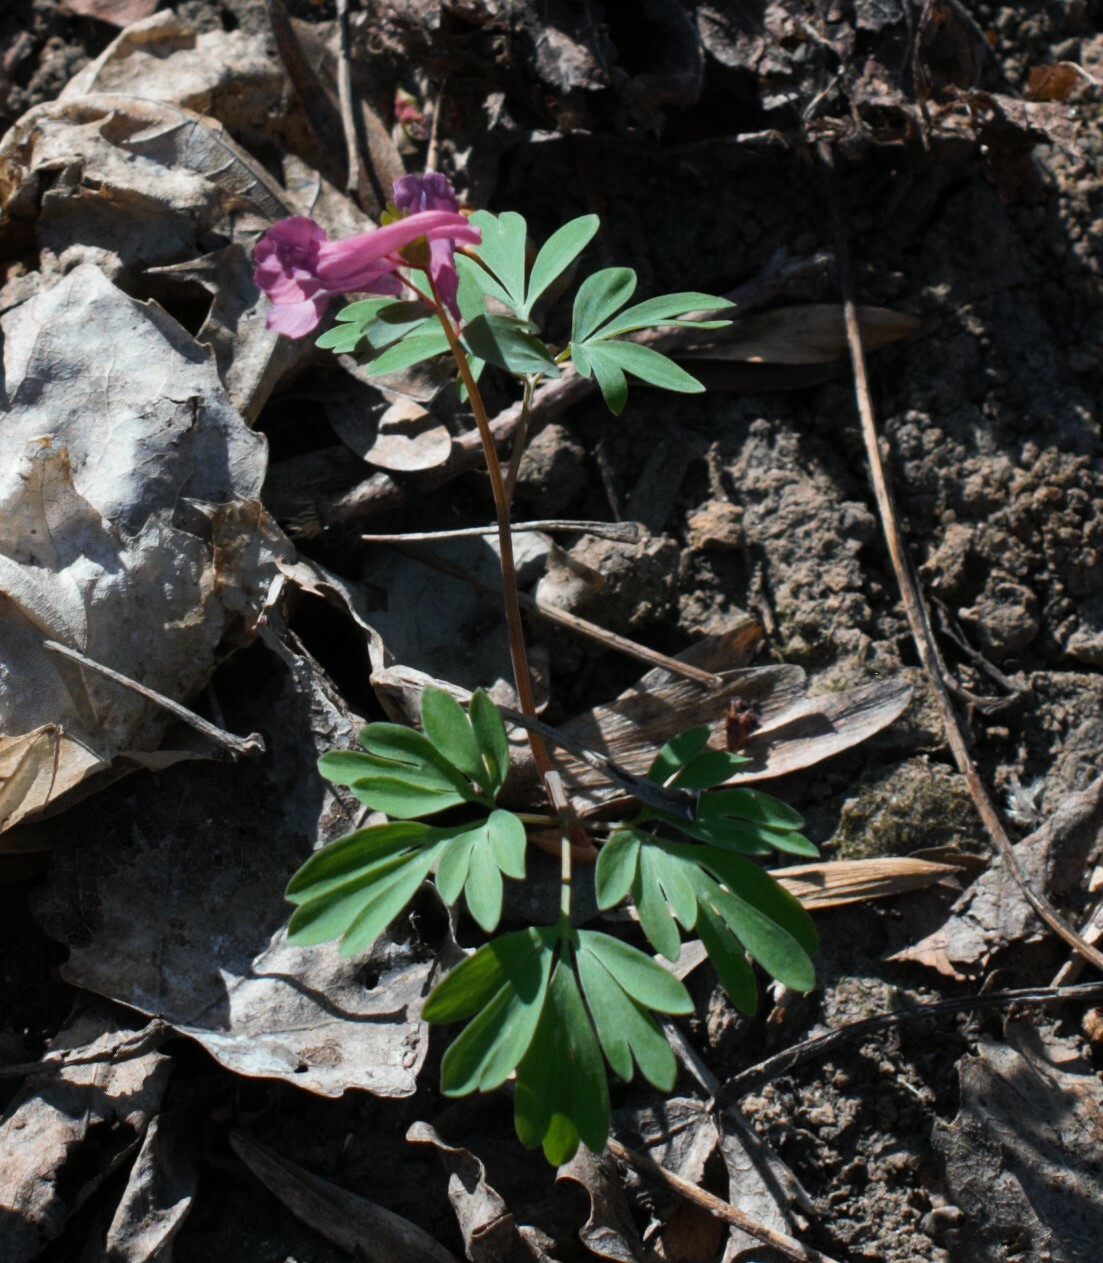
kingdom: Plantae
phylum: Tracheophyta
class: Magnoliopsida
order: Ranunculales
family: Papaveraceae
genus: Corydalis
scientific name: Corydalis solida
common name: Bird-in-a-bush
